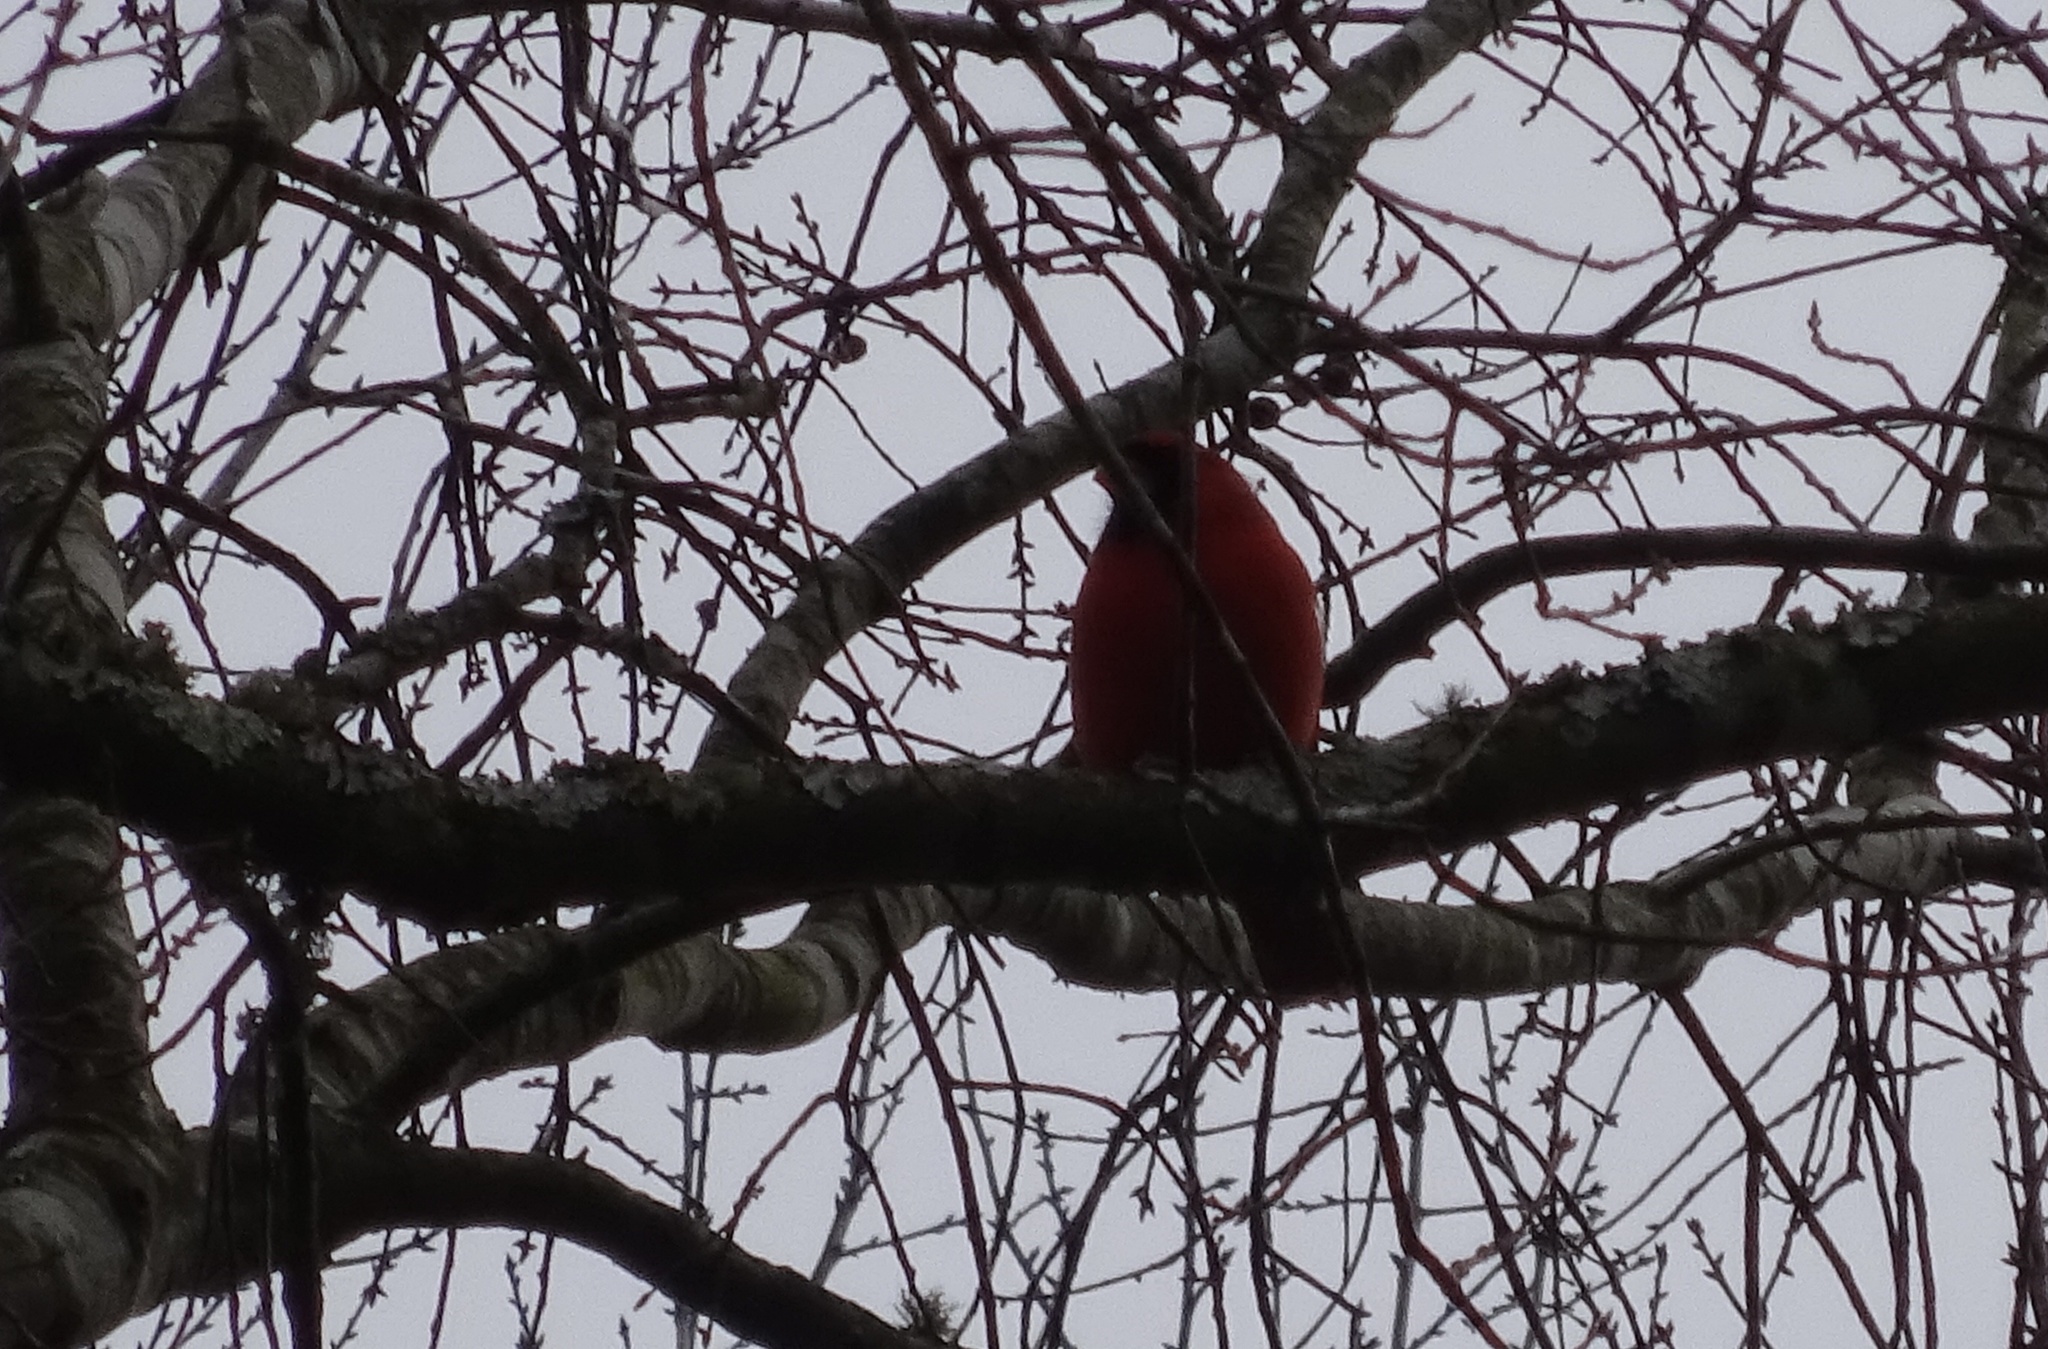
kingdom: Animalia
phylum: Chordata
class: Aves
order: Passeriformes
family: Cardinalidae
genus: Cardinalis
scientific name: Cardinalis cardinalis
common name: Northern cardinal
